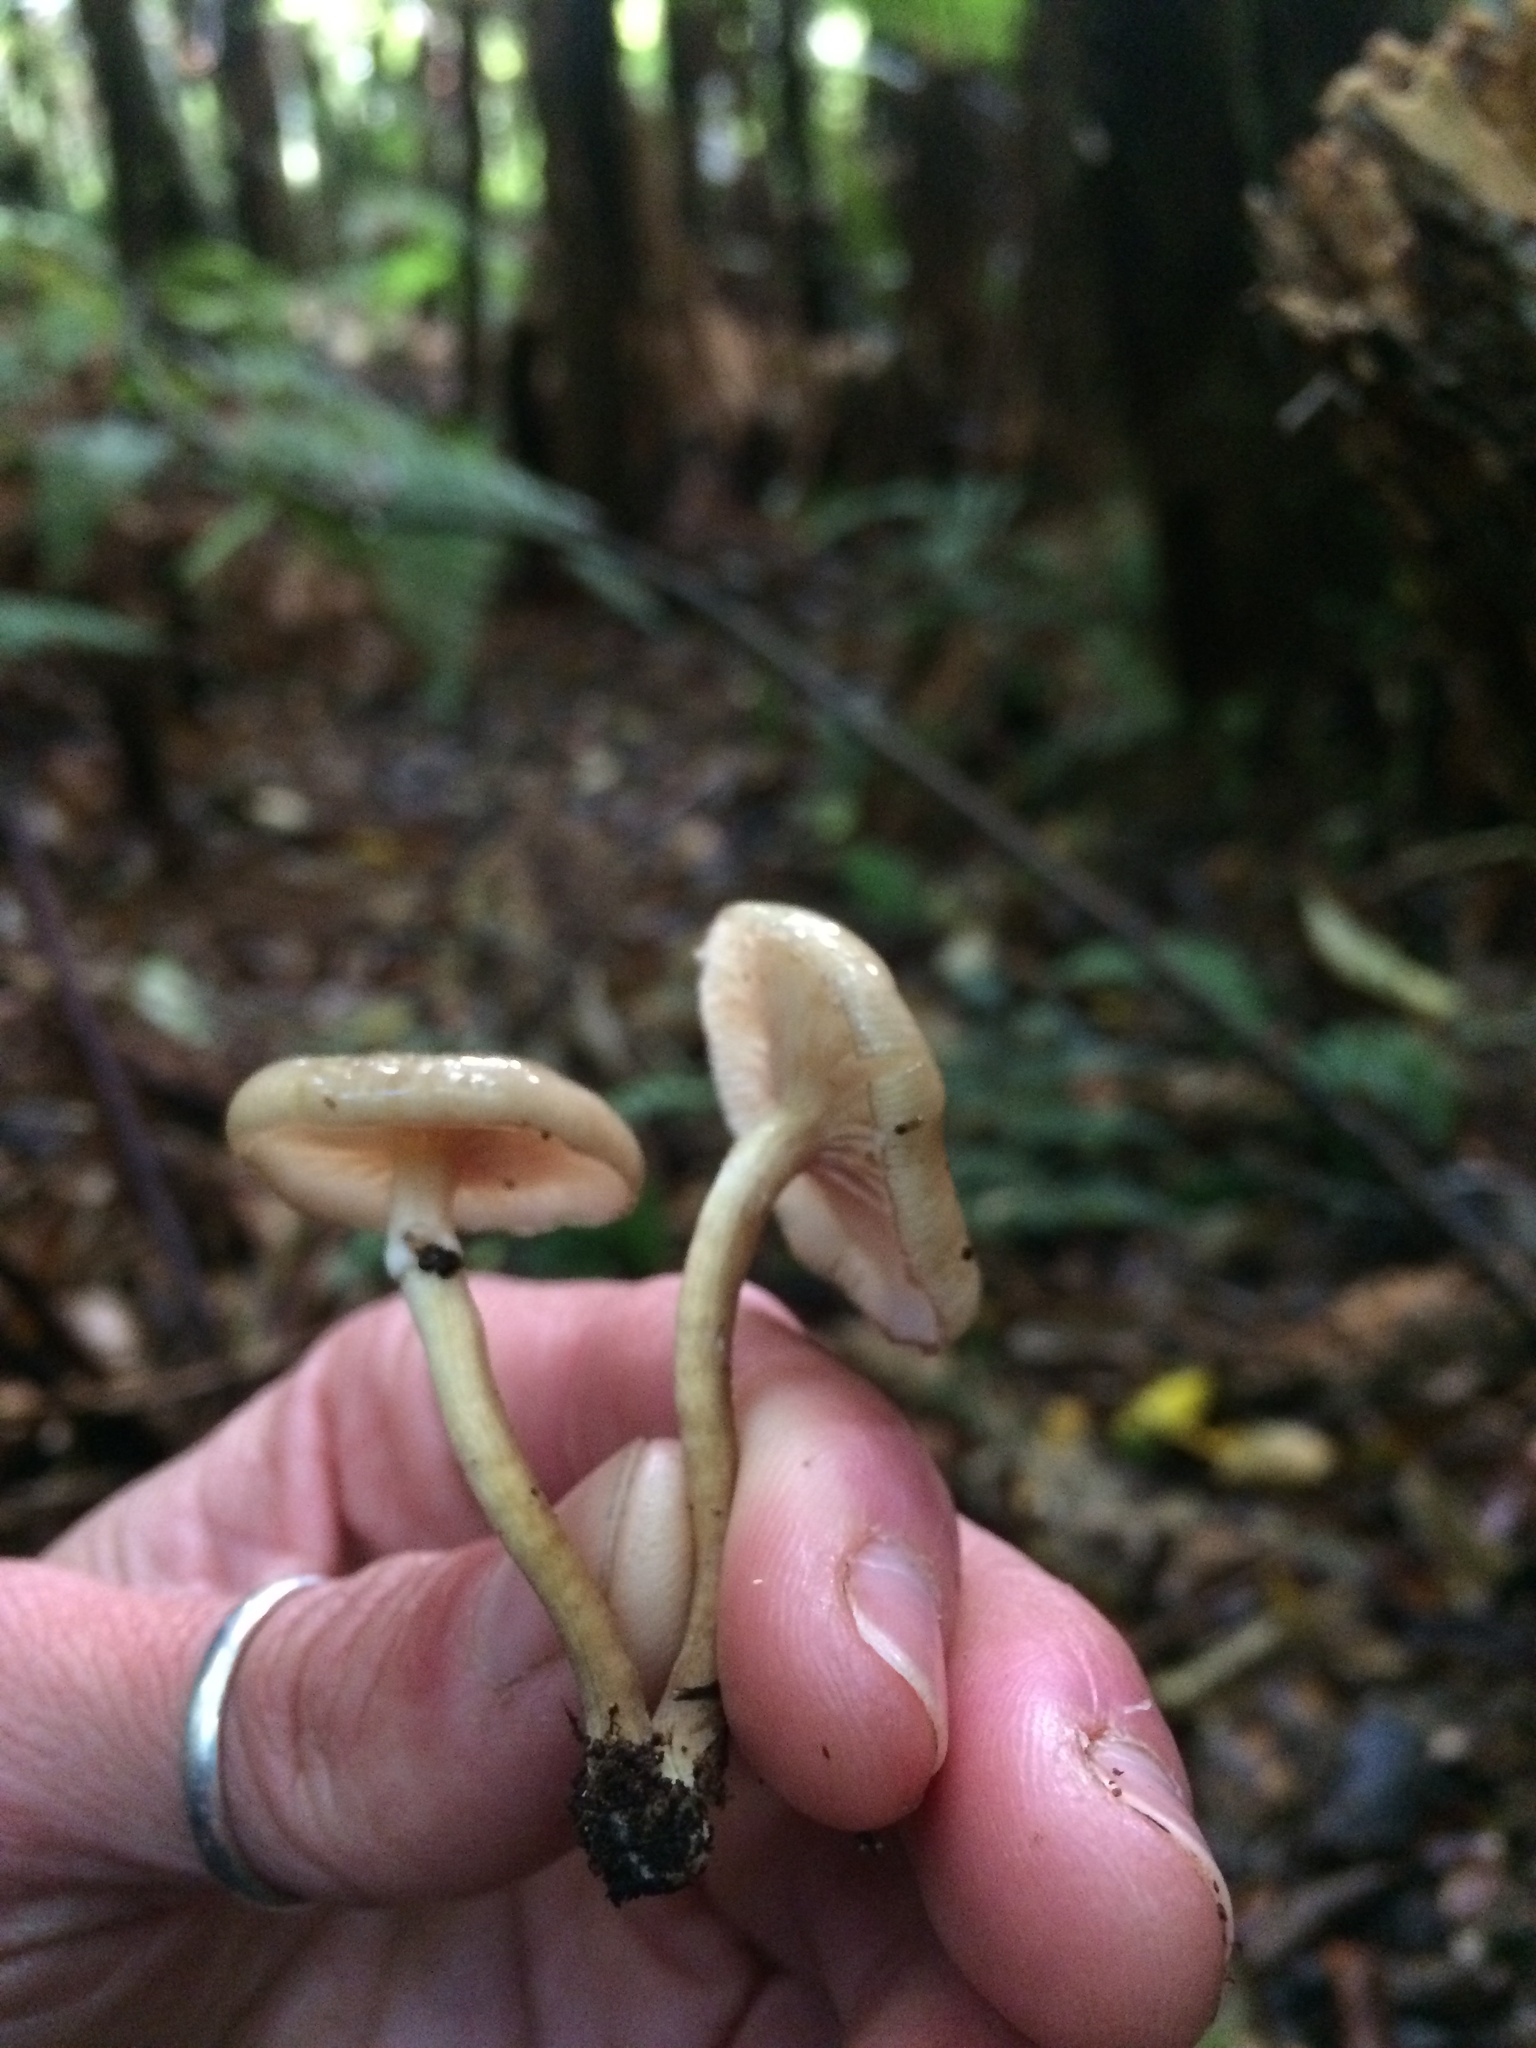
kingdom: Fungi
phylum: Basidiomycota
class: Agaricomycetes
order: Agaricales
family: Physalacriaceae
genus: Armillaria
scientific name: Armillaria novae-zelandiae
